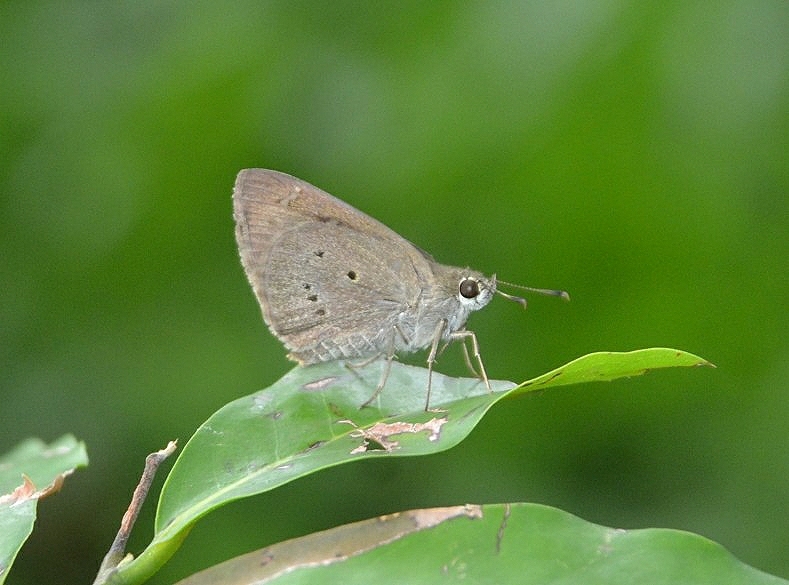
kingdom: Animalia
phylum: Arthropoda
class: Insecta
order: Lepidoptera
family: Hesperiidae
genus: Suastus
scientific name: Suastus gremius
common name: Indian palm bob
